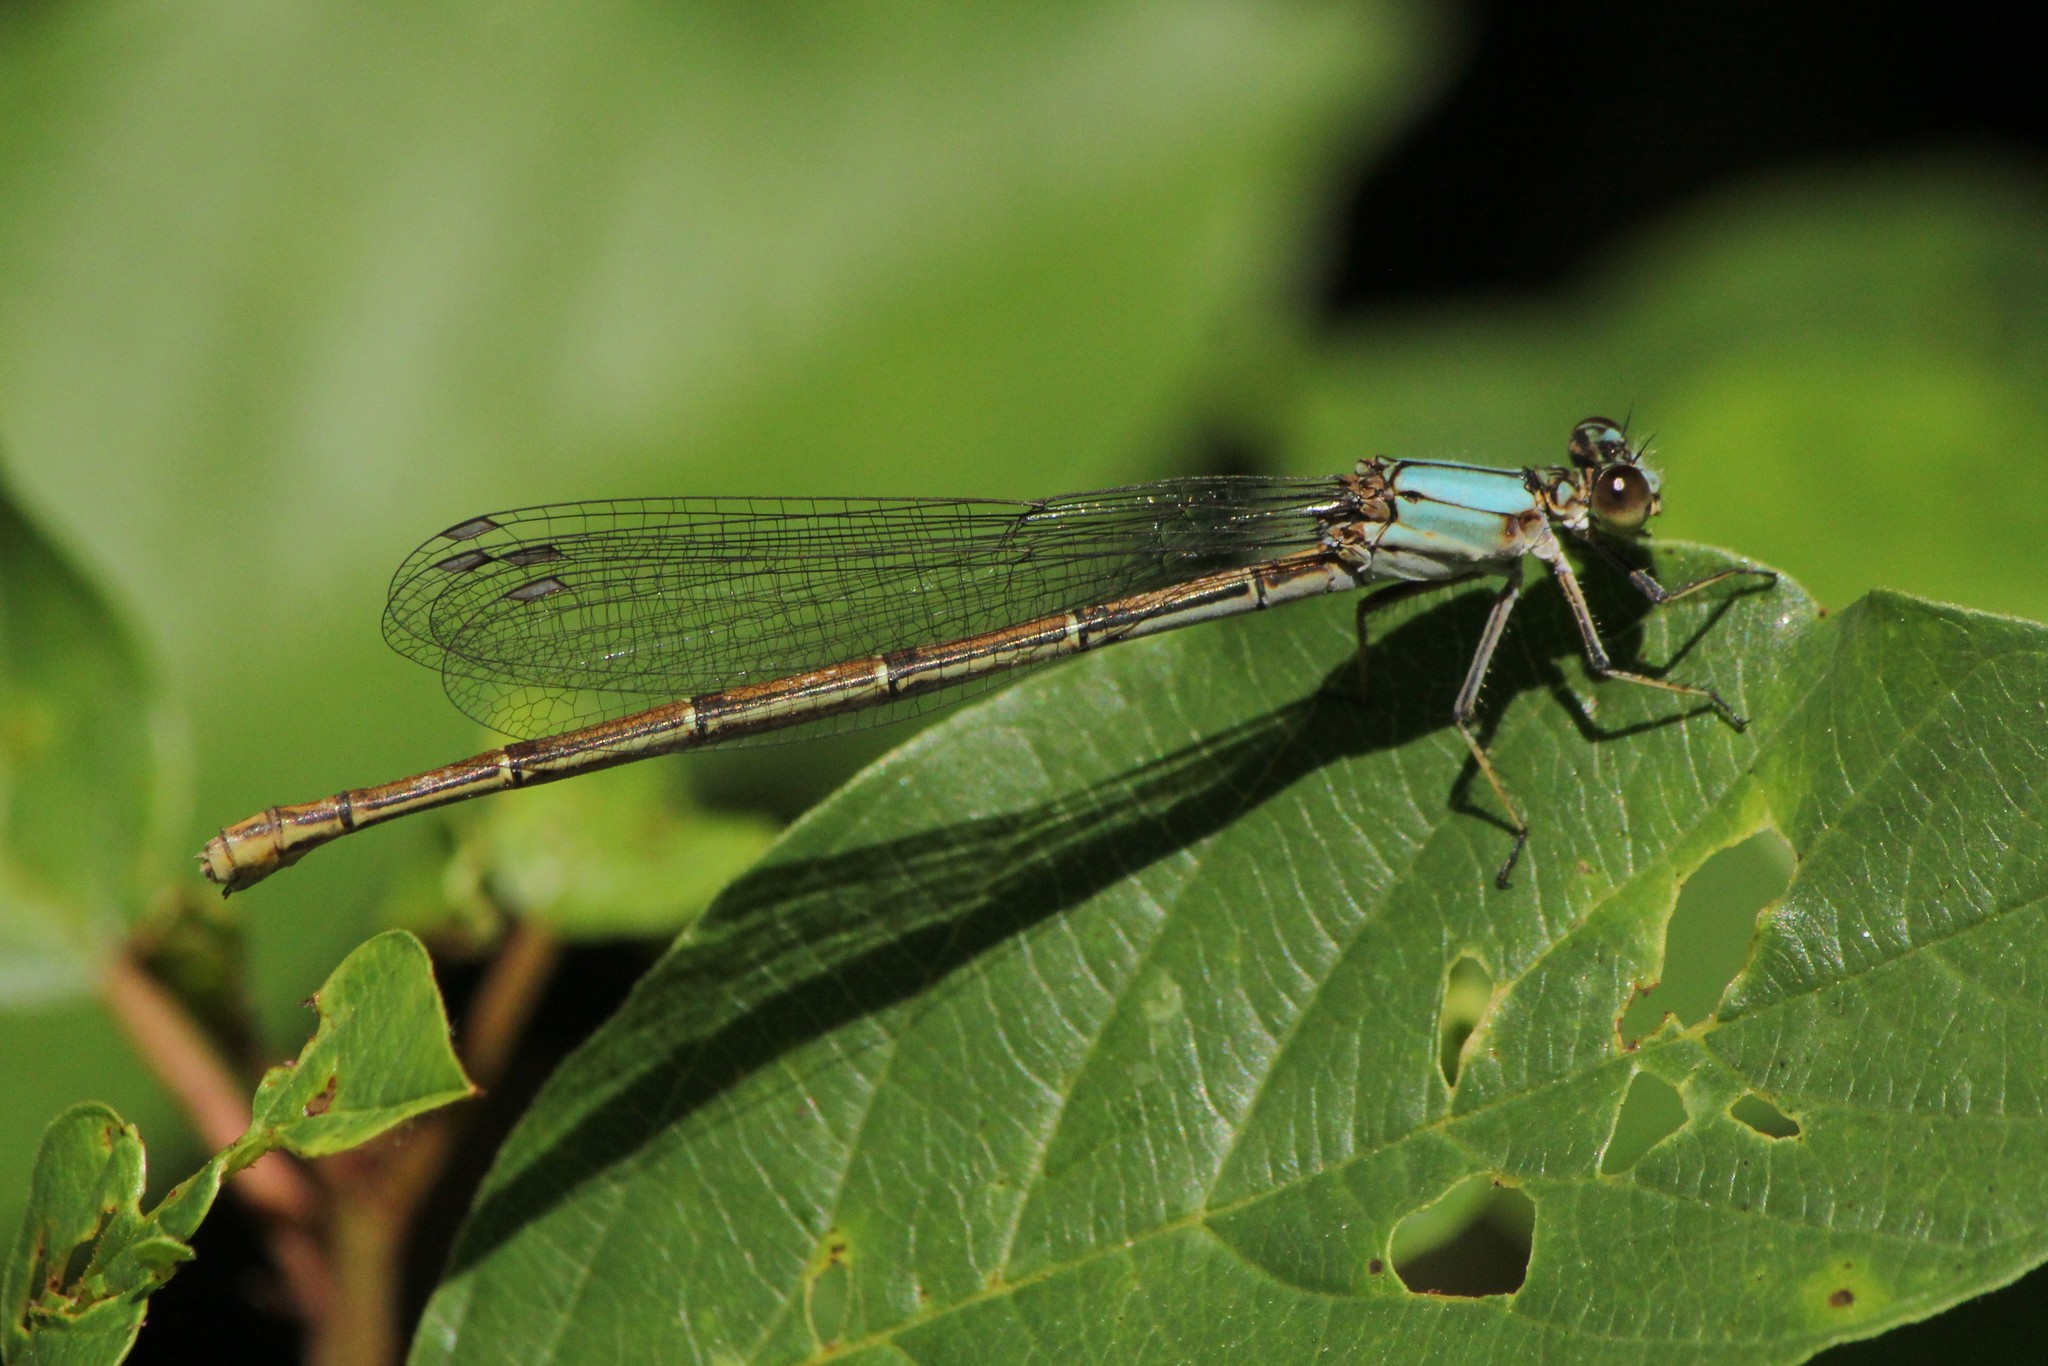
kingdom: Animalia
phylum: Arthropoda
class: Insecta
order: Odonata
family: Coenagrionidae
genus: Argia
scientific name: Argia moesta
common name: Powdered dancer
